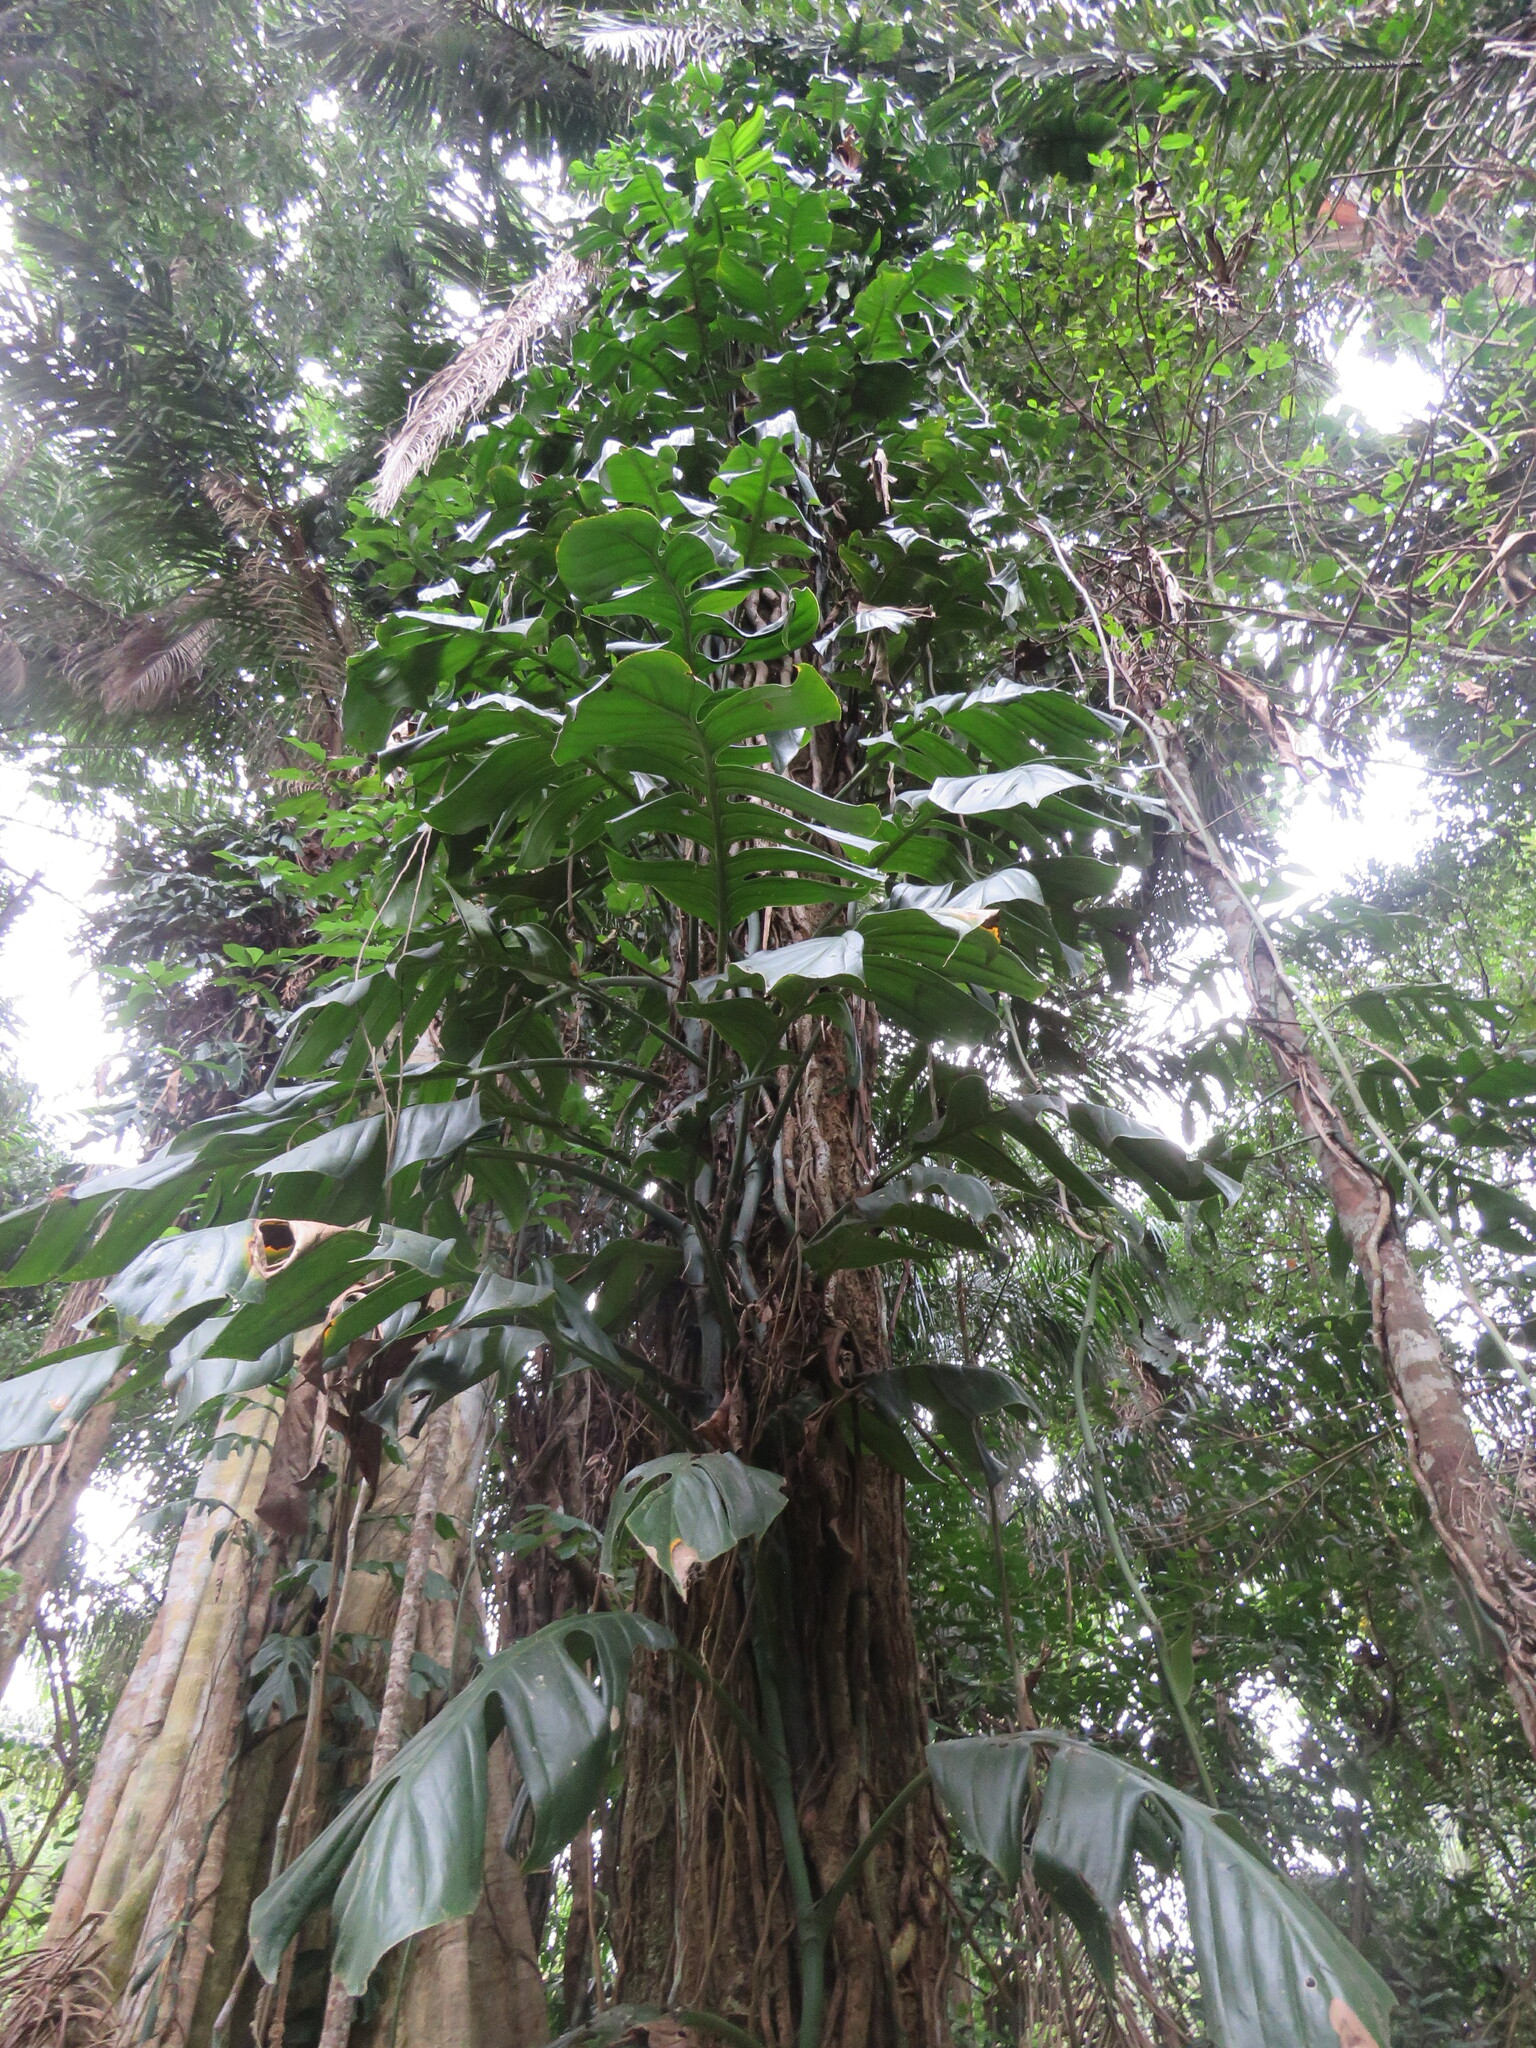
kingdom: Plantae
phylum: Tracheophyta
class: Liliopsida
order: Alismatales
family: Araceae
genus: Monstera
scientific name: Monstera spruceana
